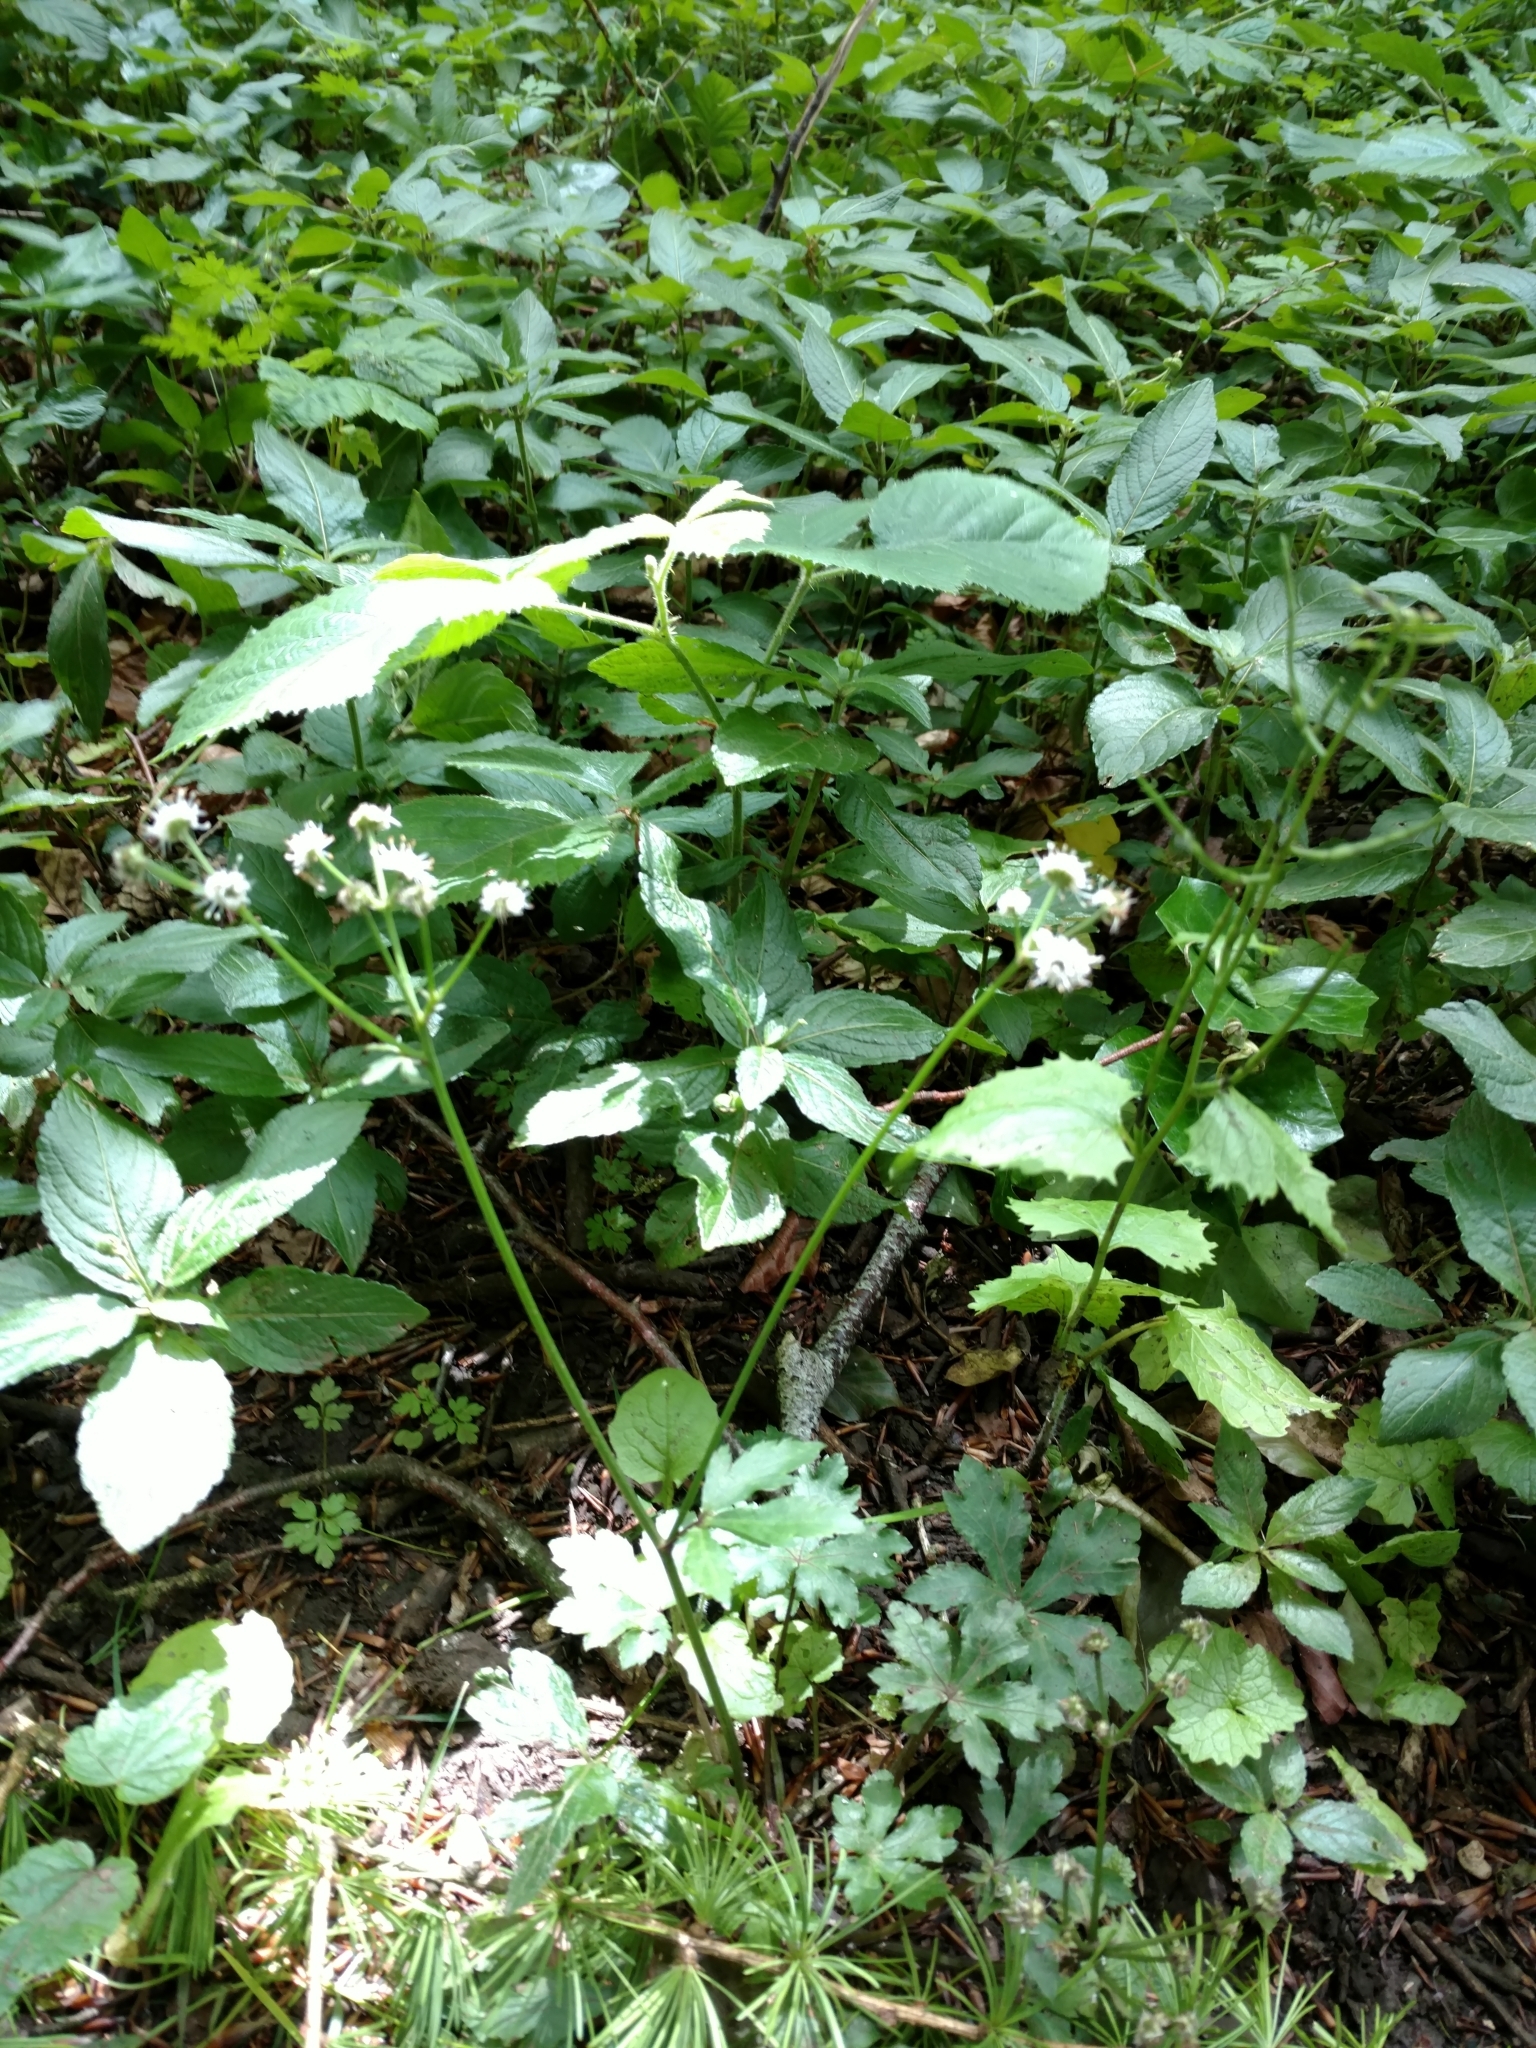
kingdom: Plantae
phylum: Tracheophyta
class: Magnoliopsida
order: Apiales
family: Apiaceae
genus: Sanicula
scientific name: Sanicula europaea
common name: Sanicle
